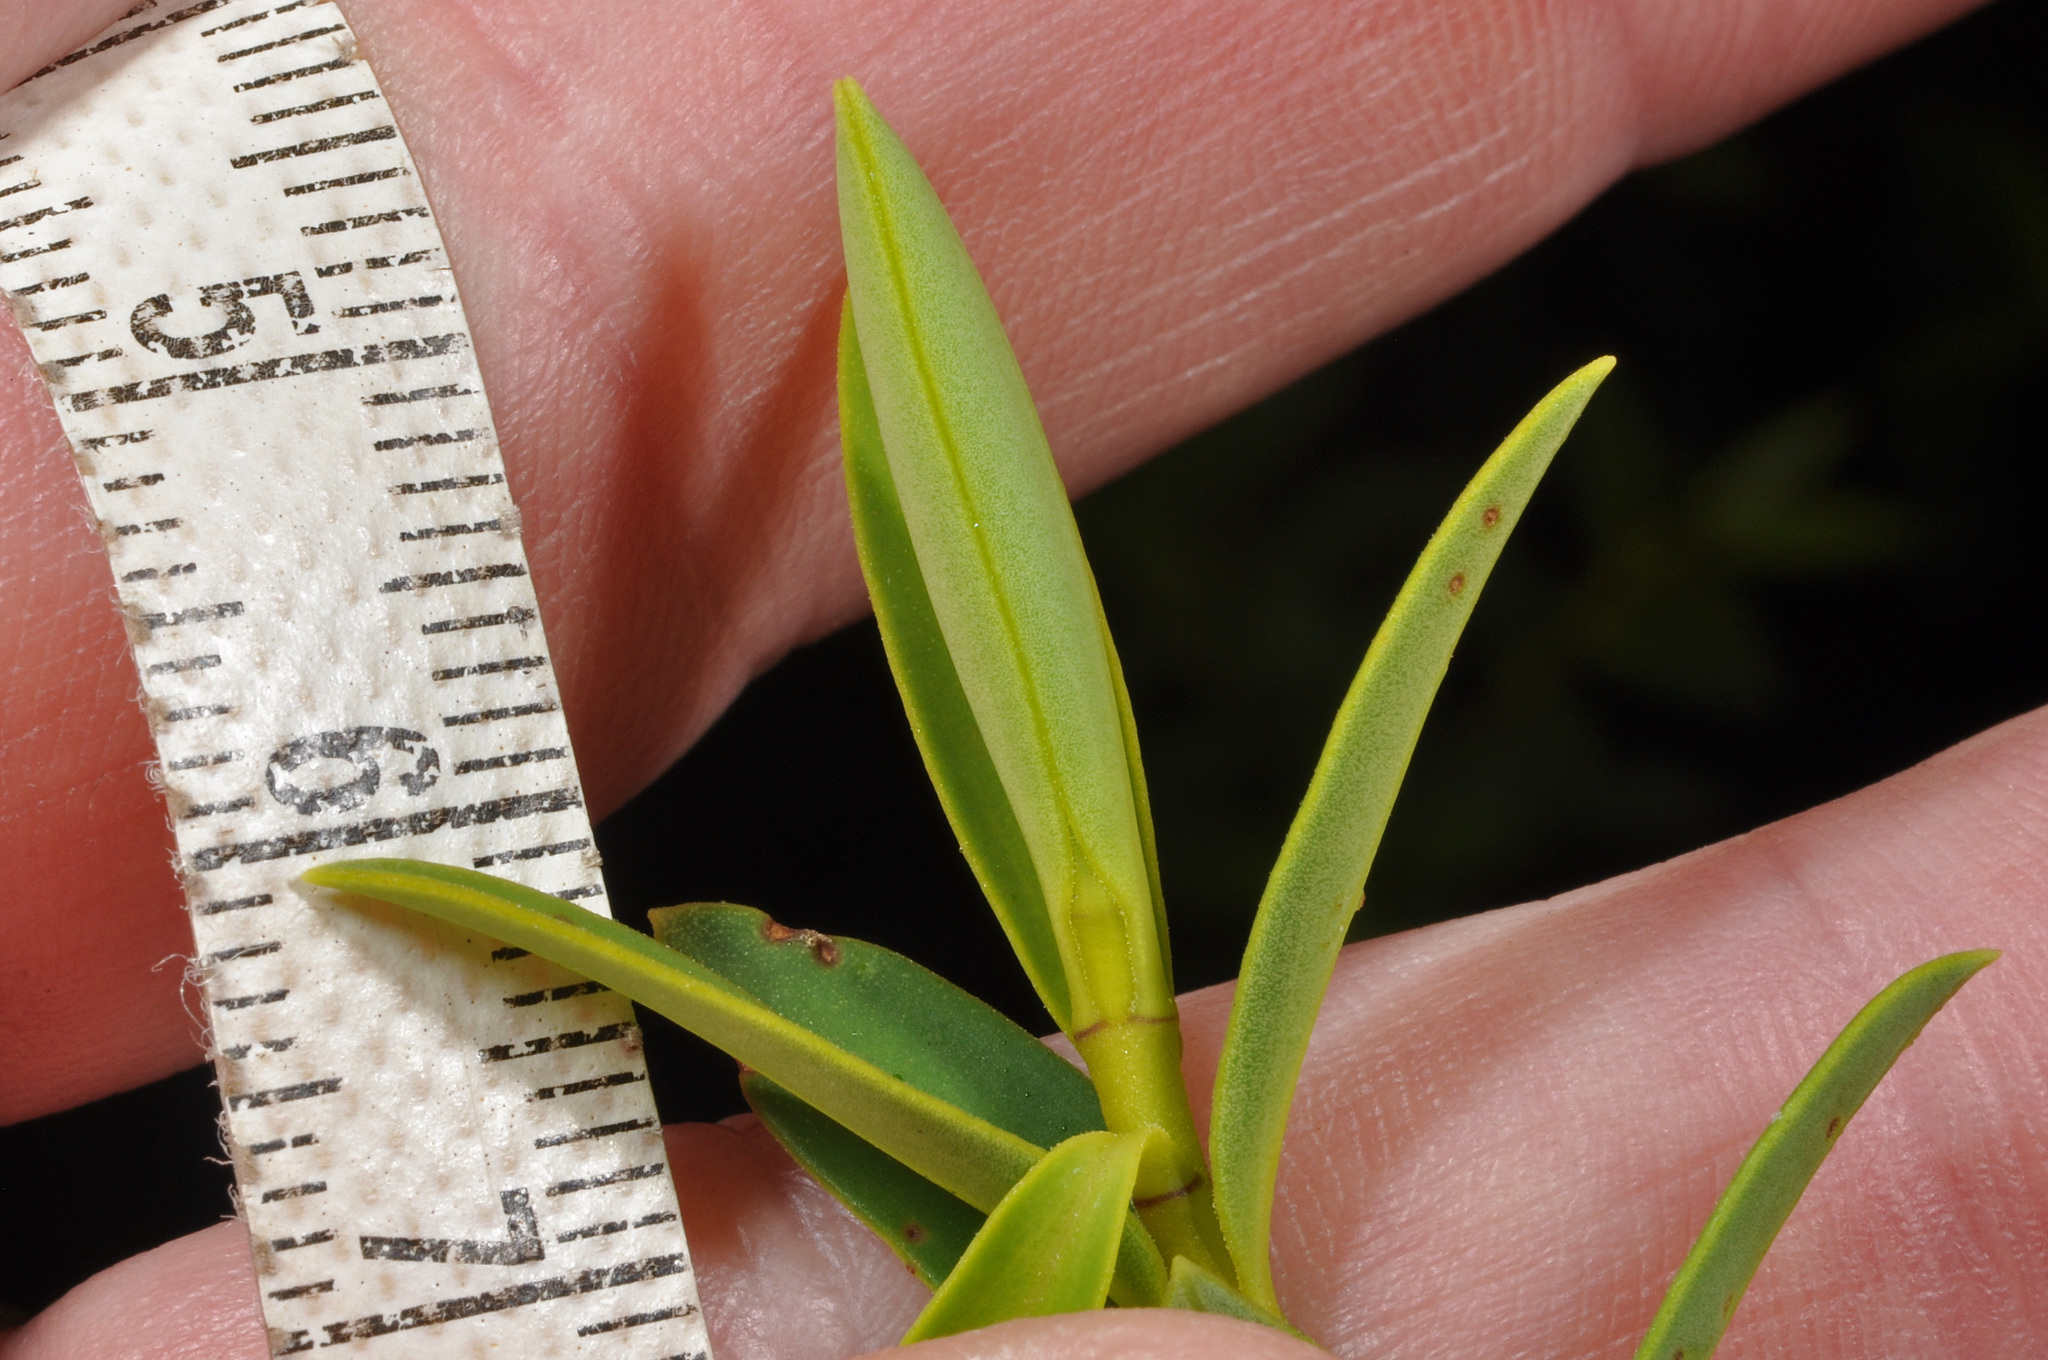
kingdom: Plantae
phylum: Tracheophyta
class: Magnoliopsida
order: Lamiales
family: Plantaginaceae
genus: Veronica
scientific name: Veronica rupicola
